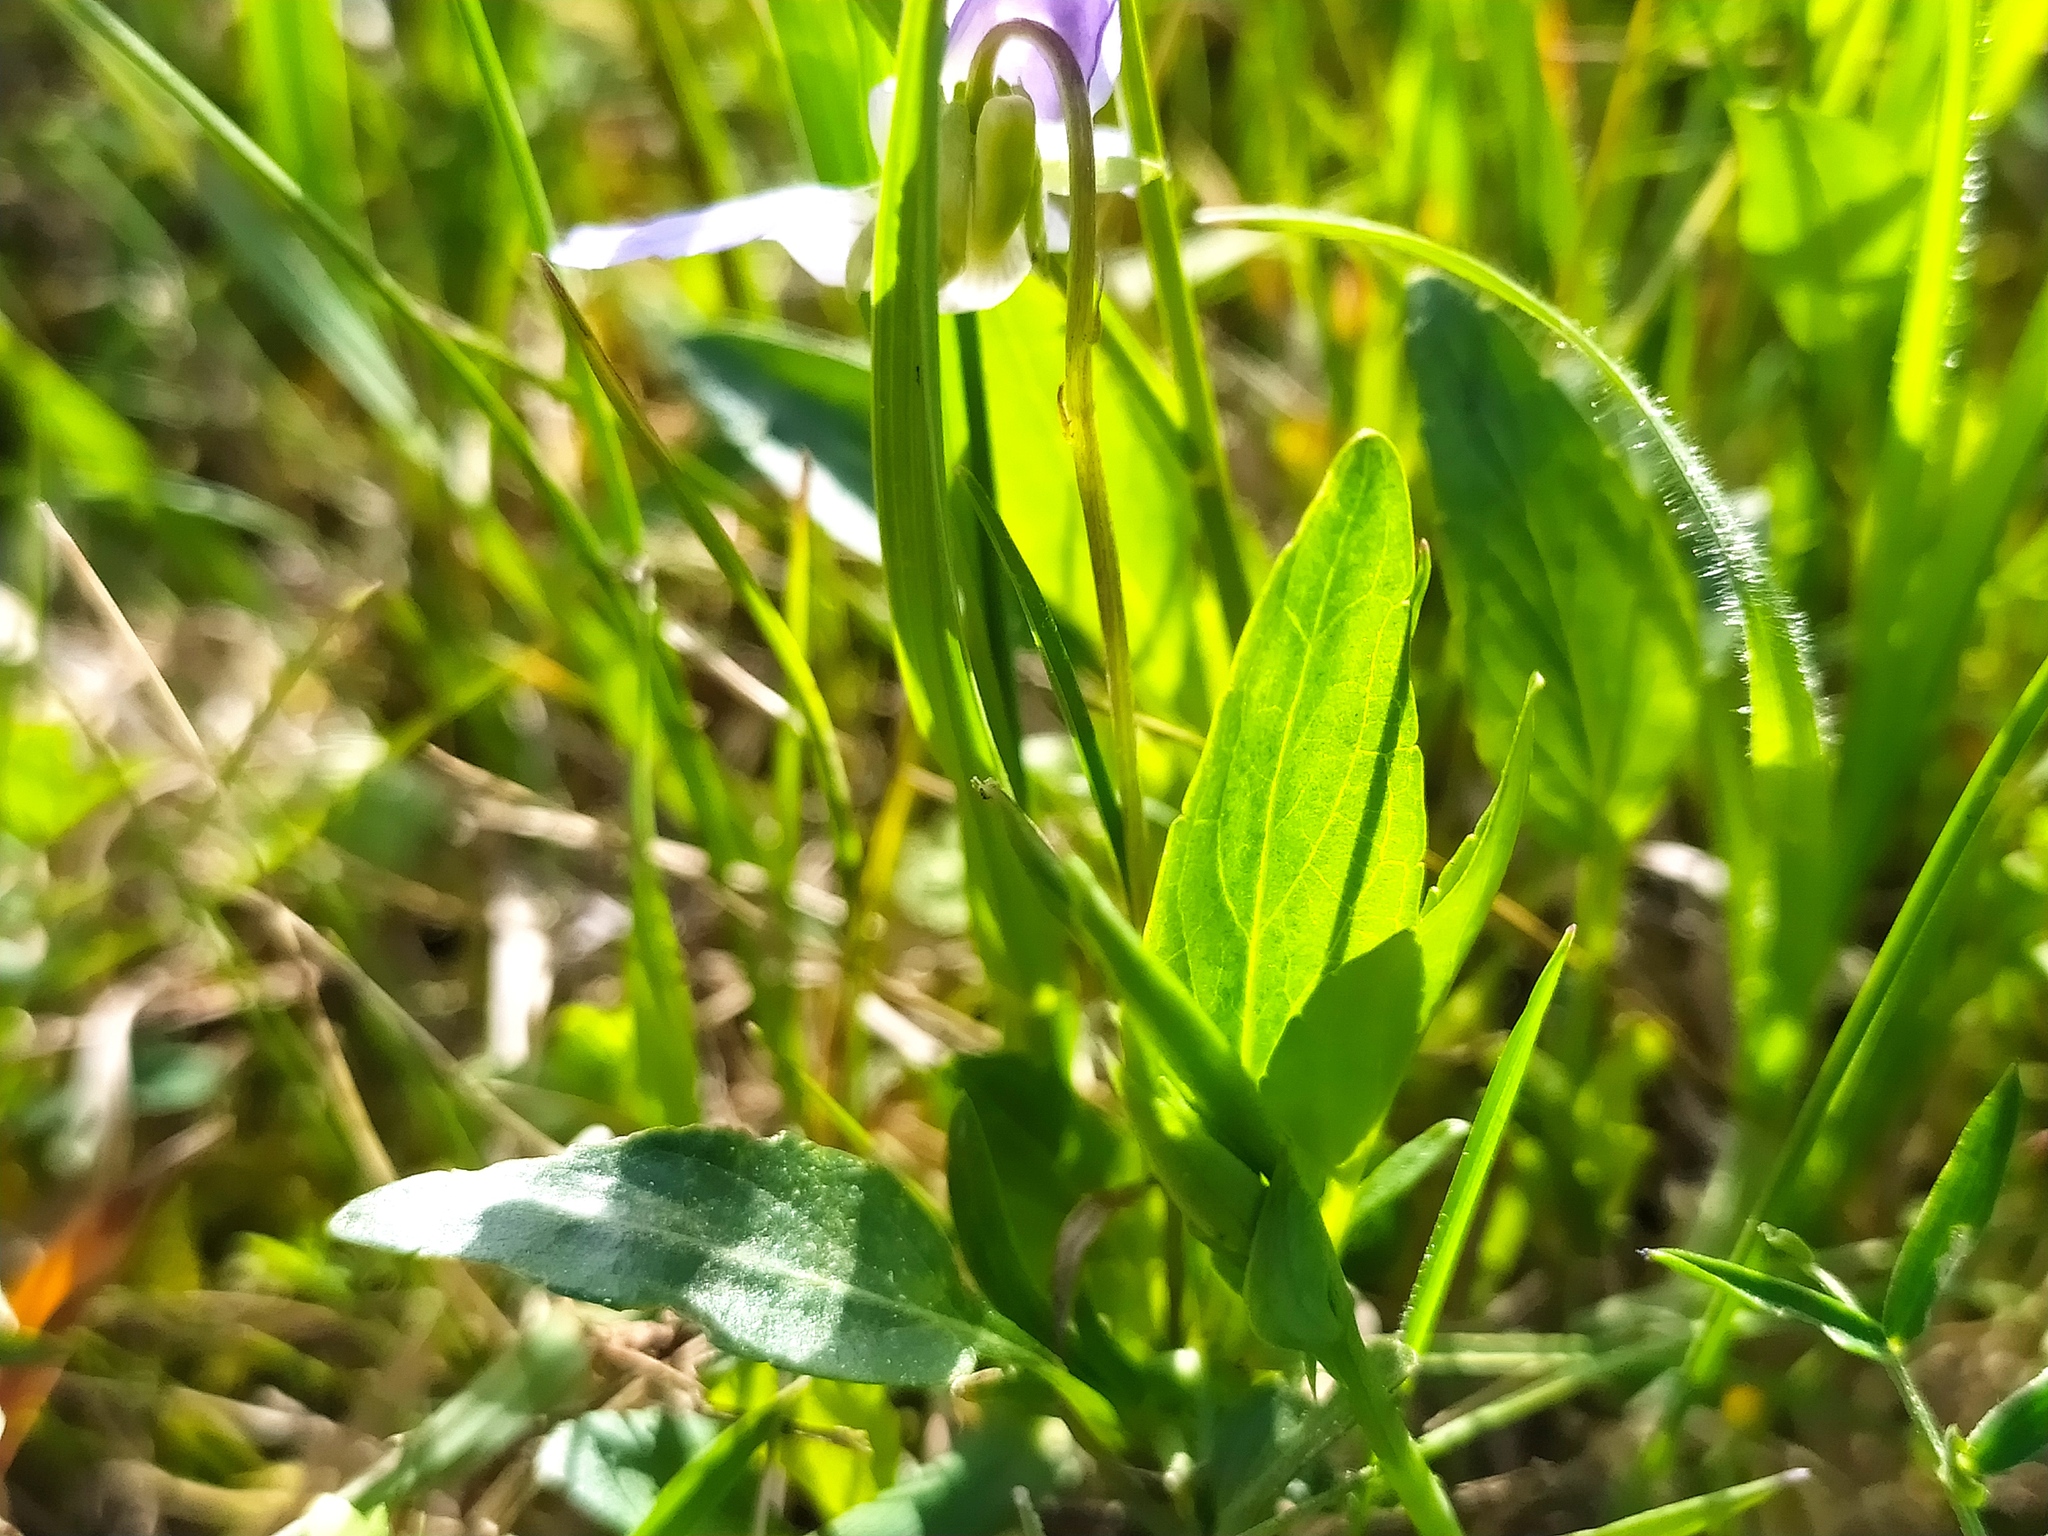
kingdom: Plantae
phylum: Tracheophyta
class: Magnoliopsida
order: Malpighiales
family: Violaceae
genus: Viola
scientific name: Viola pumila
